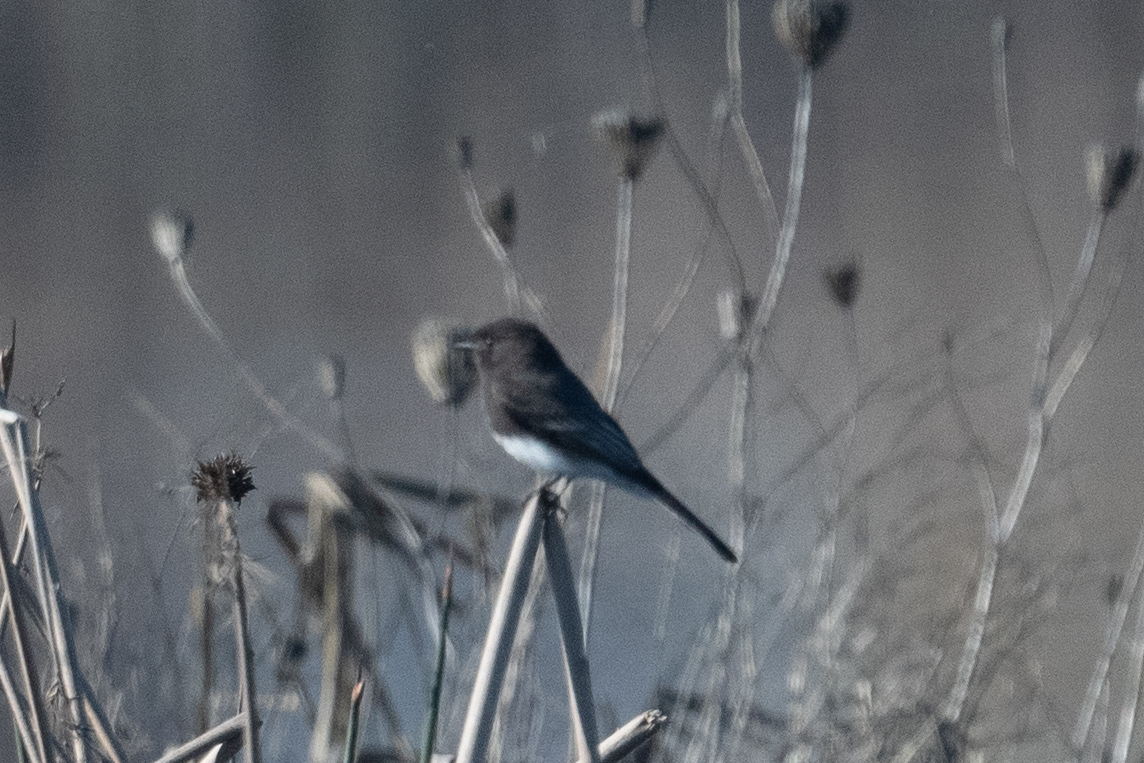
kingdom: Animalia
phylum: Chordata
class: Aves
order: Passeriformes
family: Tyrannidae
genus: Sayornis
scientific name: Sayornis nigricans
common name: Black phoebe
